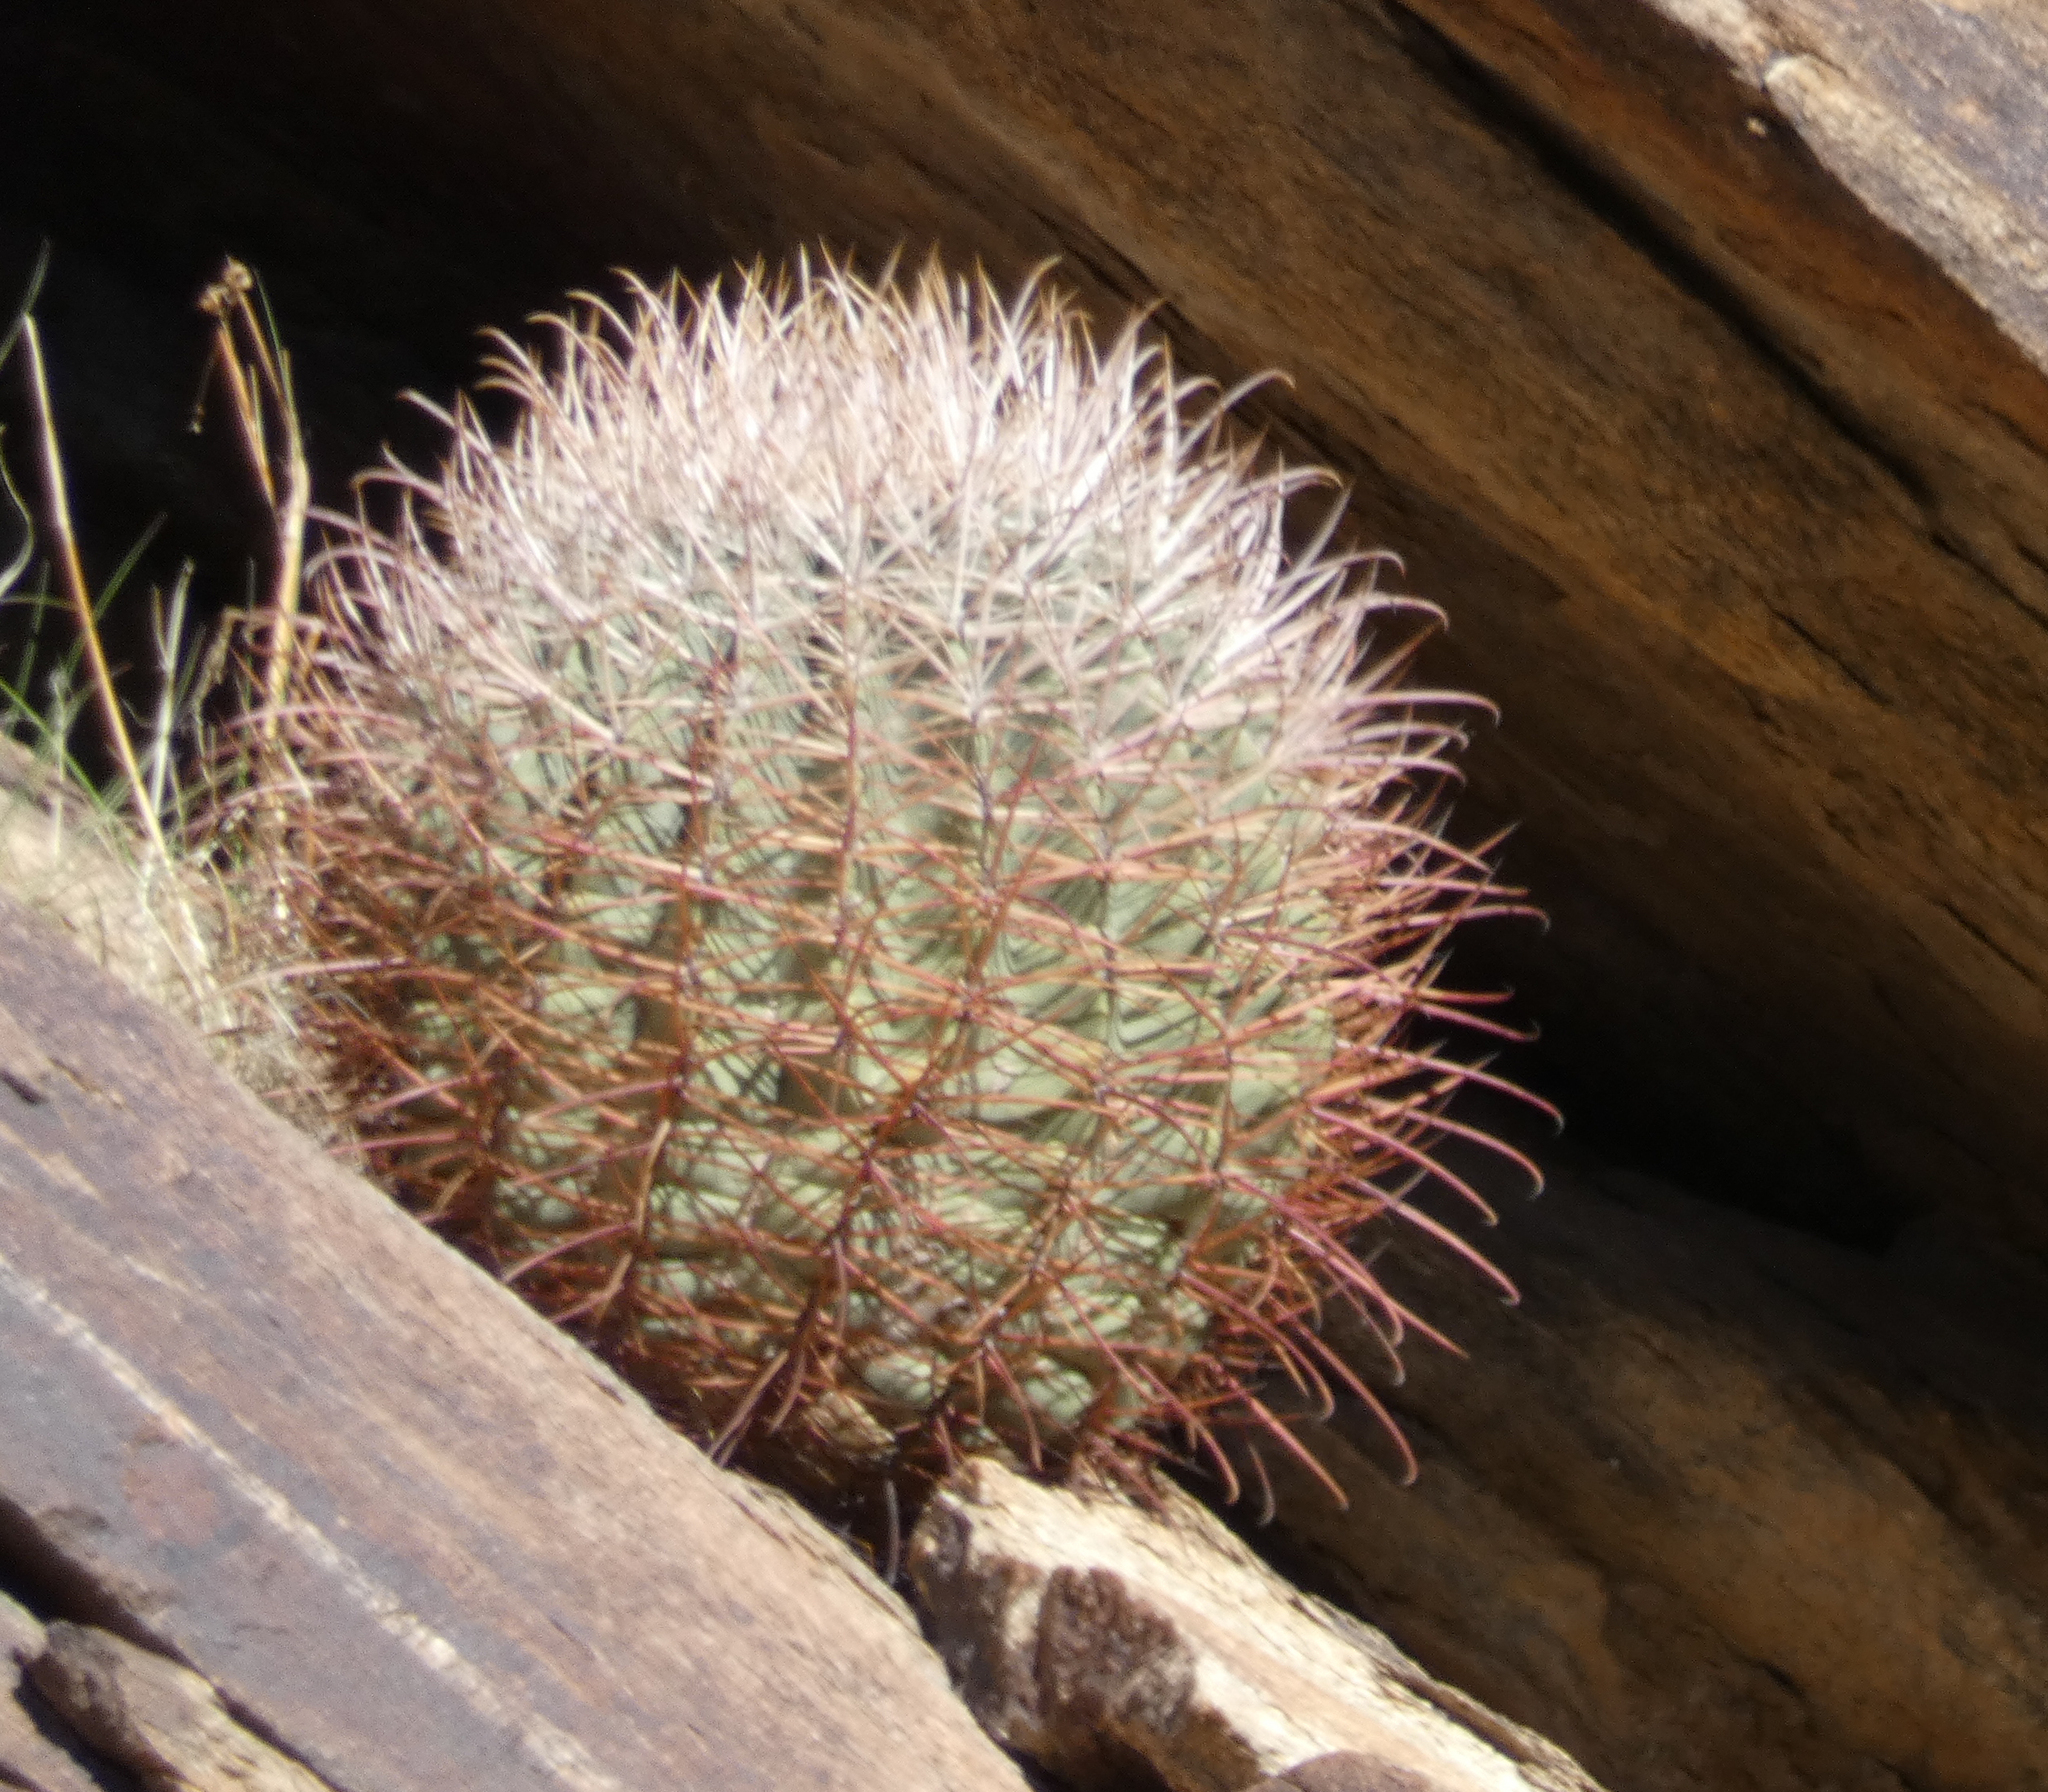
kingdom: Plantae
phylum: Tracheophyta
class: Magnoliopsida
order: Caryophyllales
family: Cactaceae
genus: Ferocactus
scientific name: Ferocactus cylindraceus
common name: California barrel cactus
